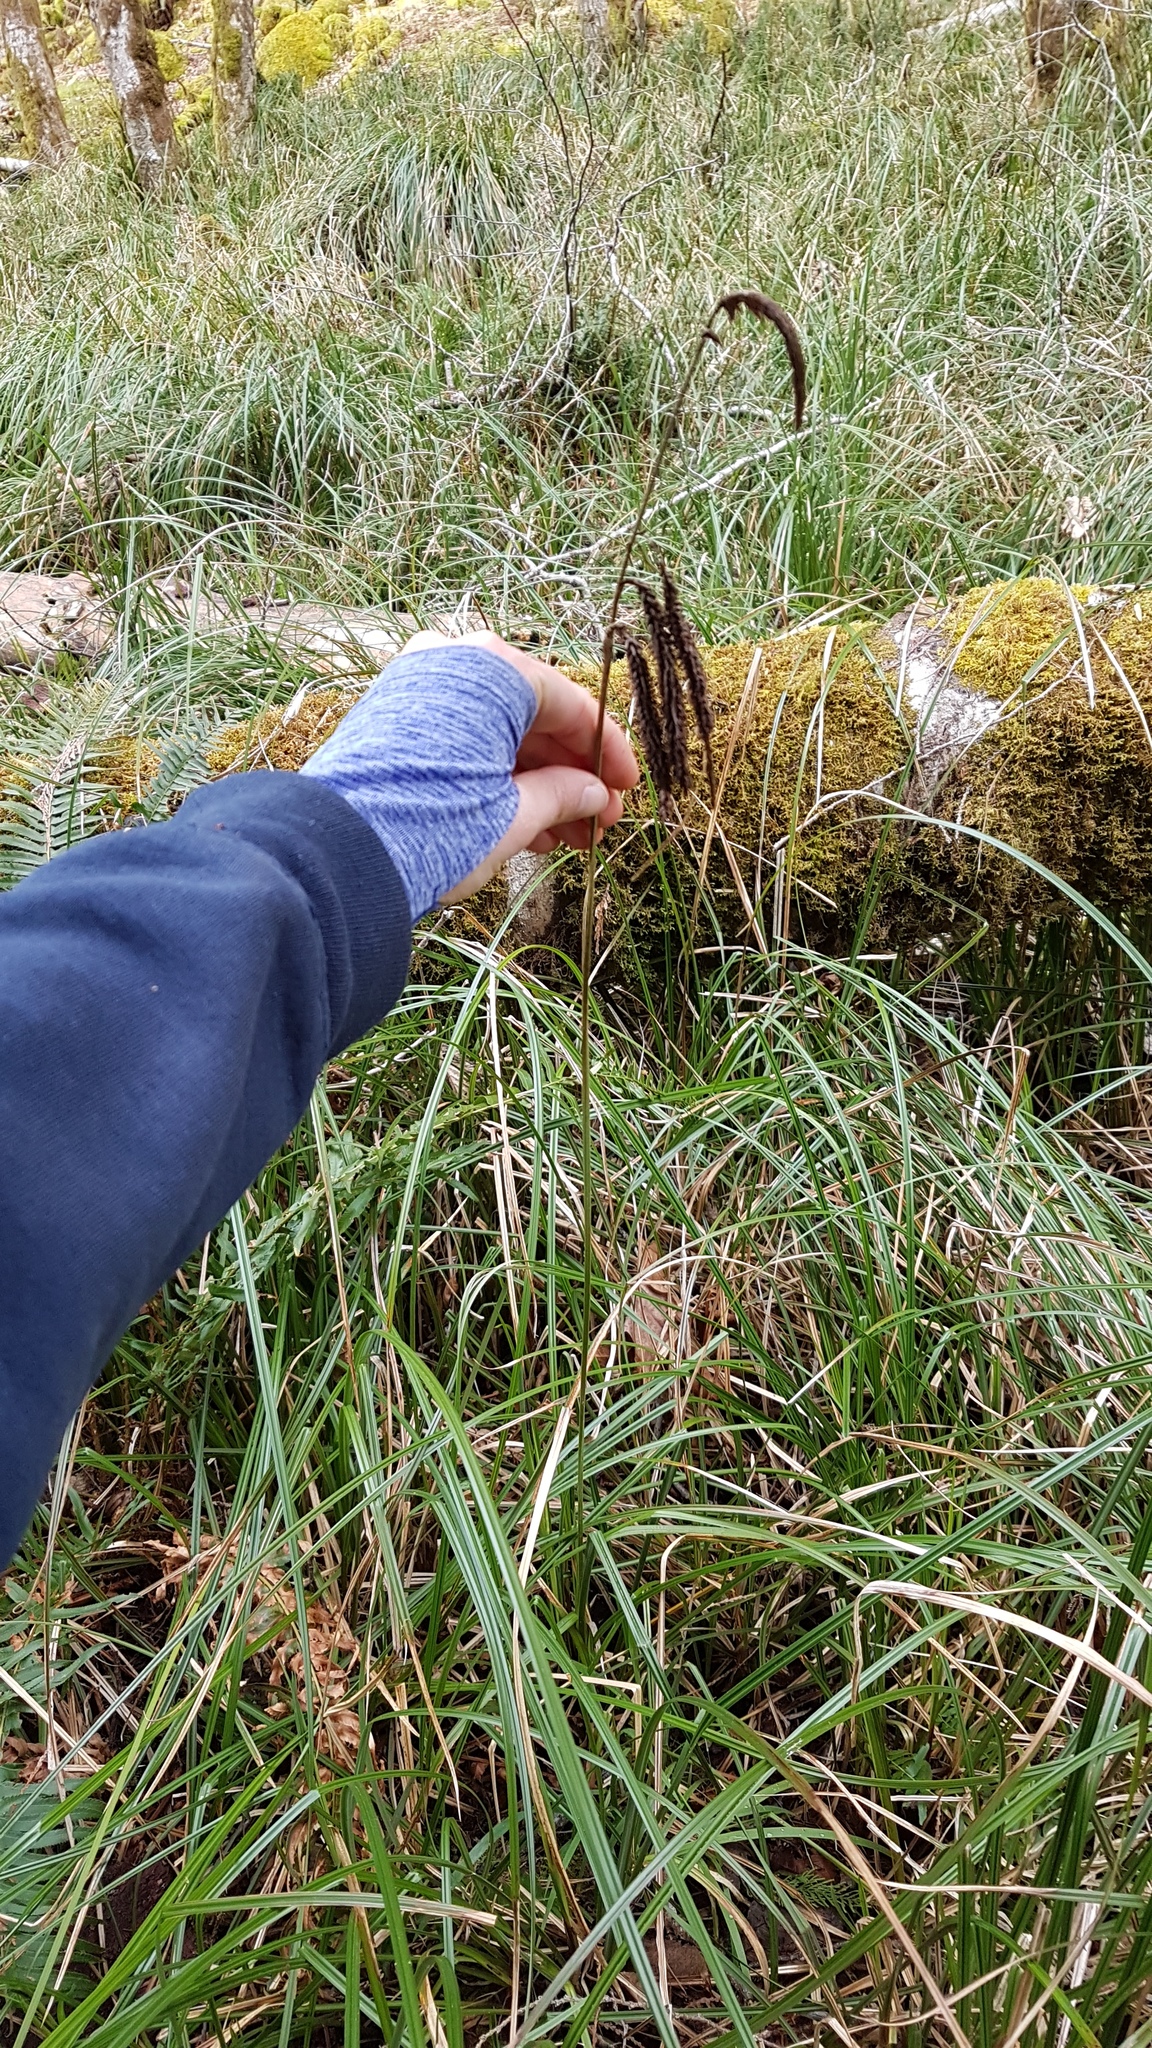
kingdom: Plantae
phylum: Tracheophyta
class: Liliopsida
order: Poales
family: Cyperaceae
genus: Carex
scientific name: Carex obnupta
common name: Slough sedge
